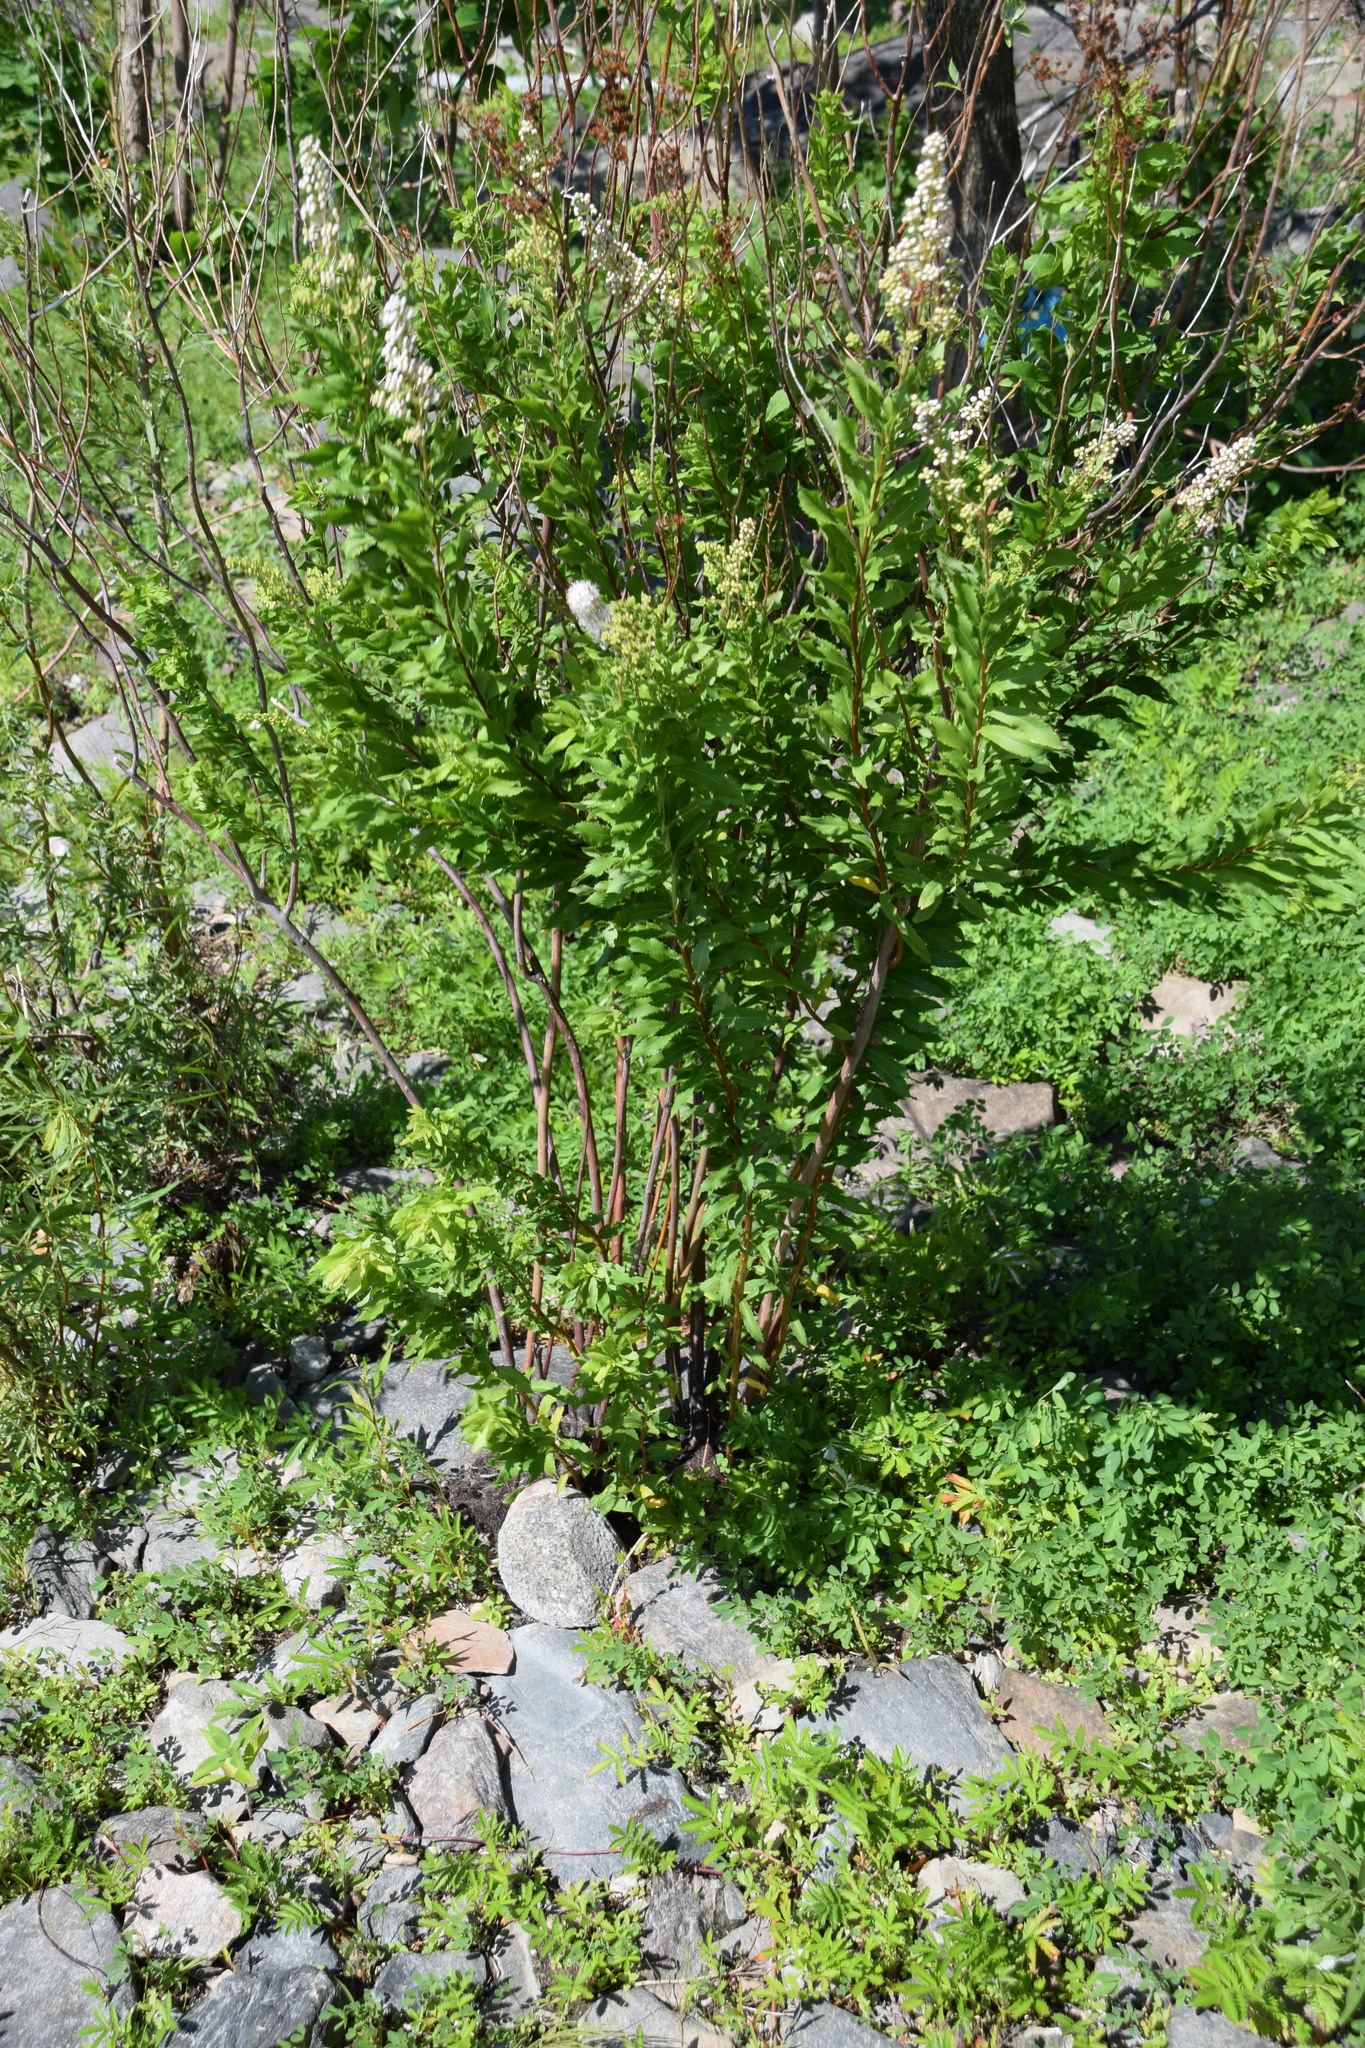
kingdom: Plantae
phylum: Tracheophyta
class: Magnoliopsida
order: Rosales
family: Rosaceae
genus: Spiraea
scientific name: Spiraea alba
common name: Pale bridewort
